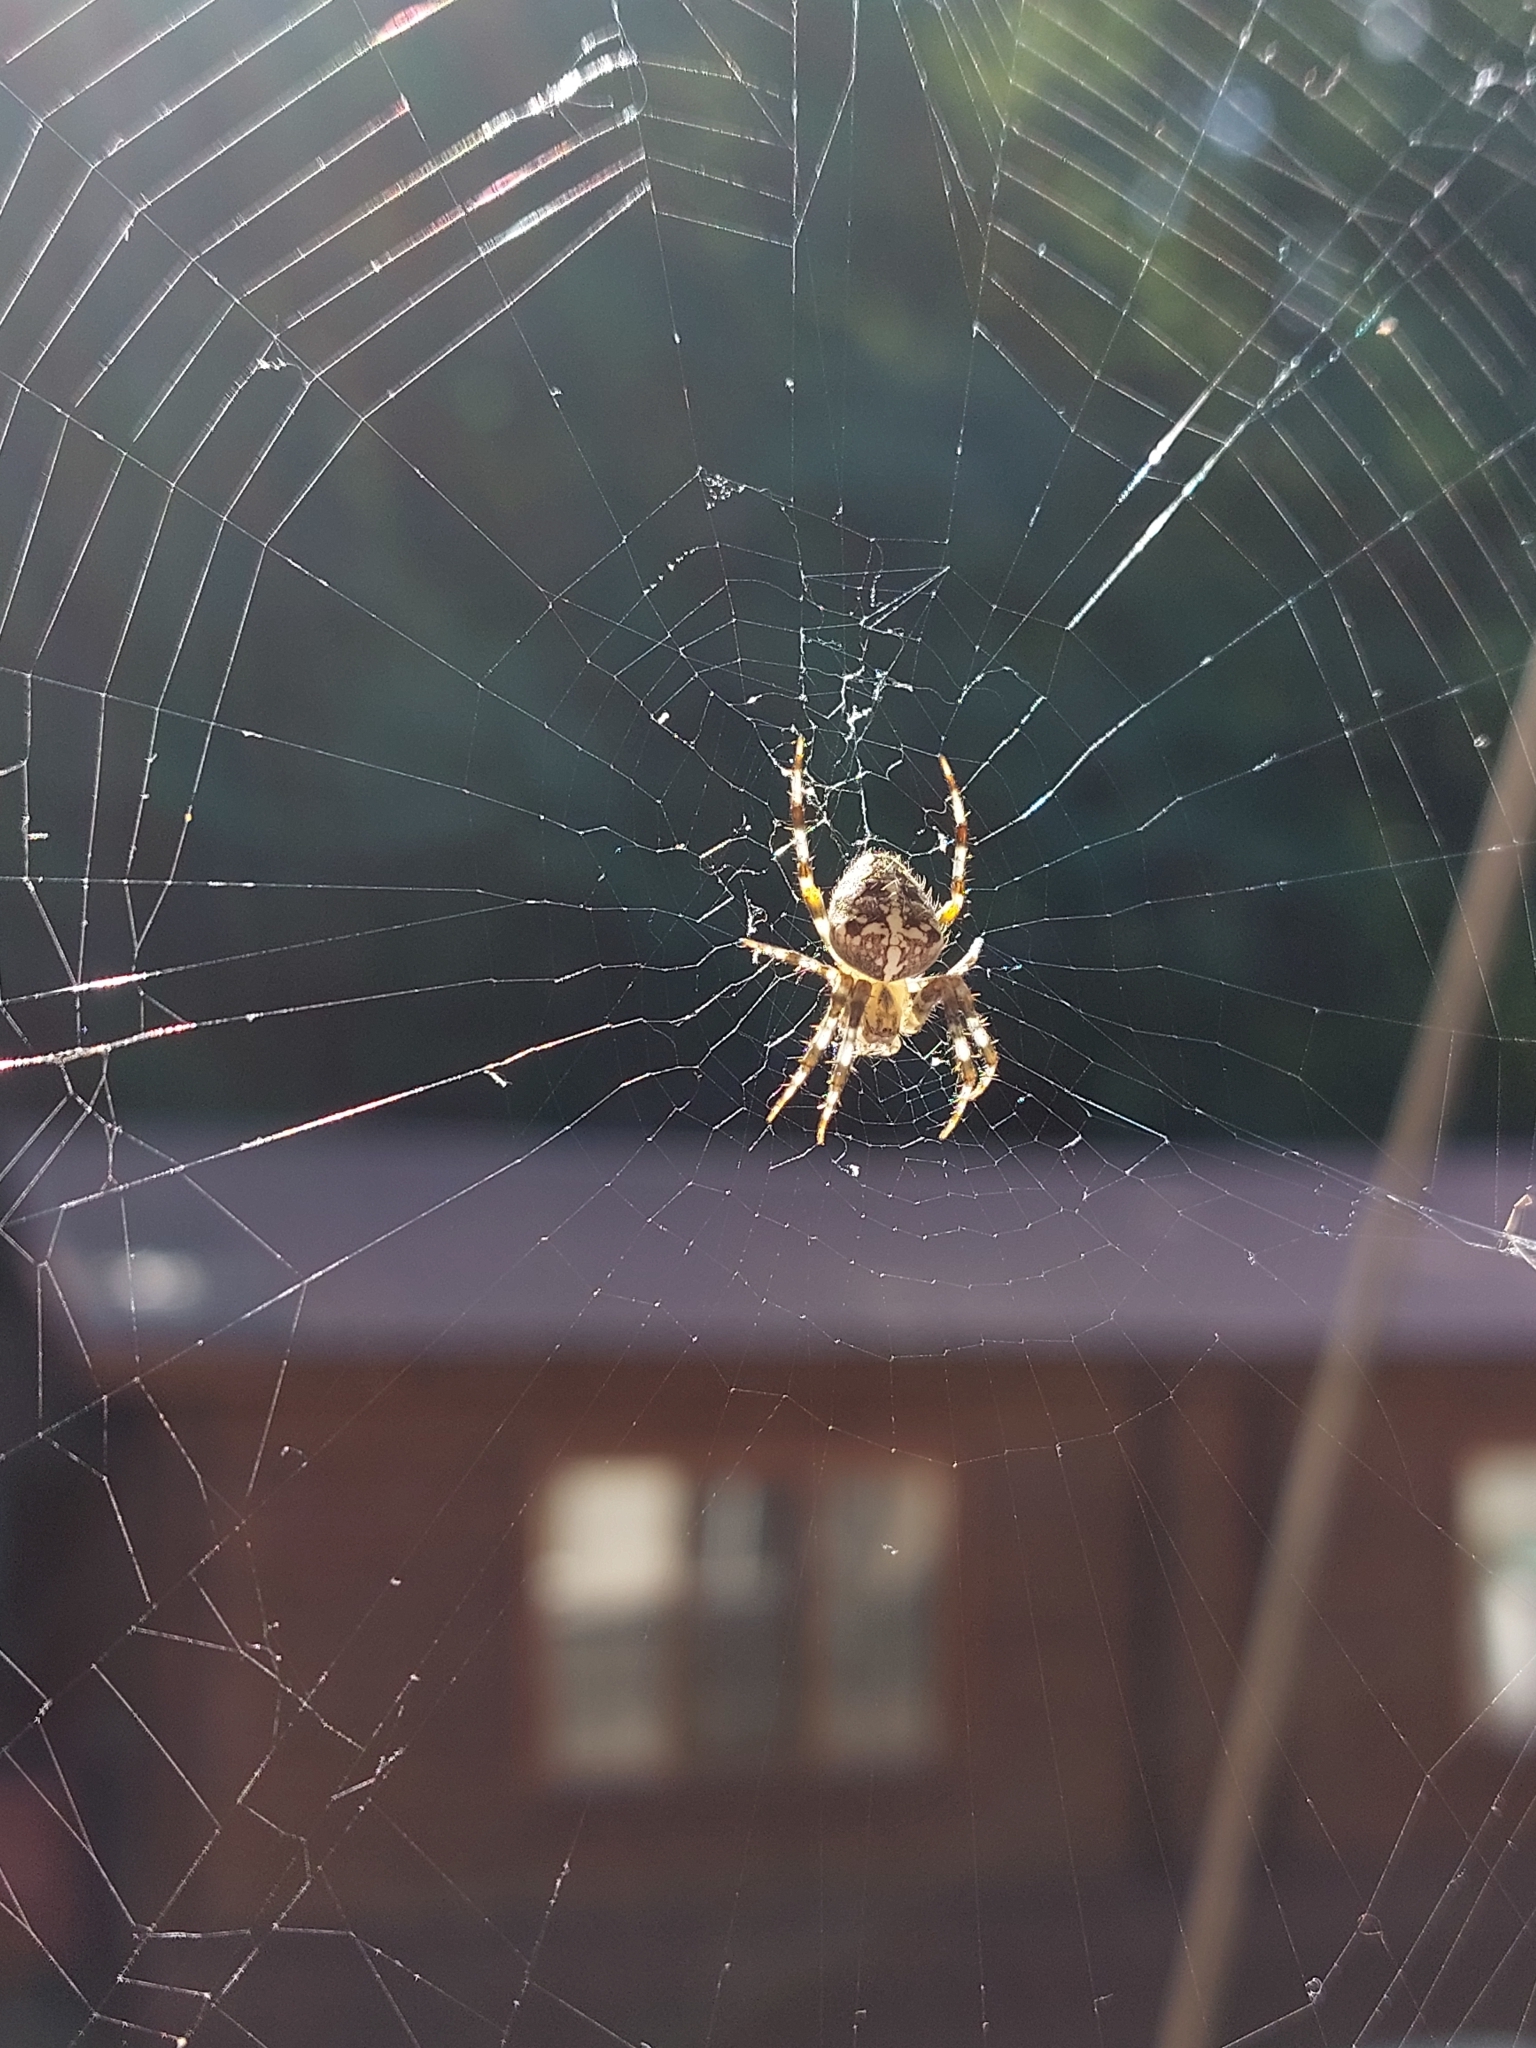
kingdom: Animalia
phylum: Arthropoda
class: Arachnida
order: Araneae
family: Araneidae
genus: Araneus
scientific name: Araneus diadematus
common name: Cross orbweaver
